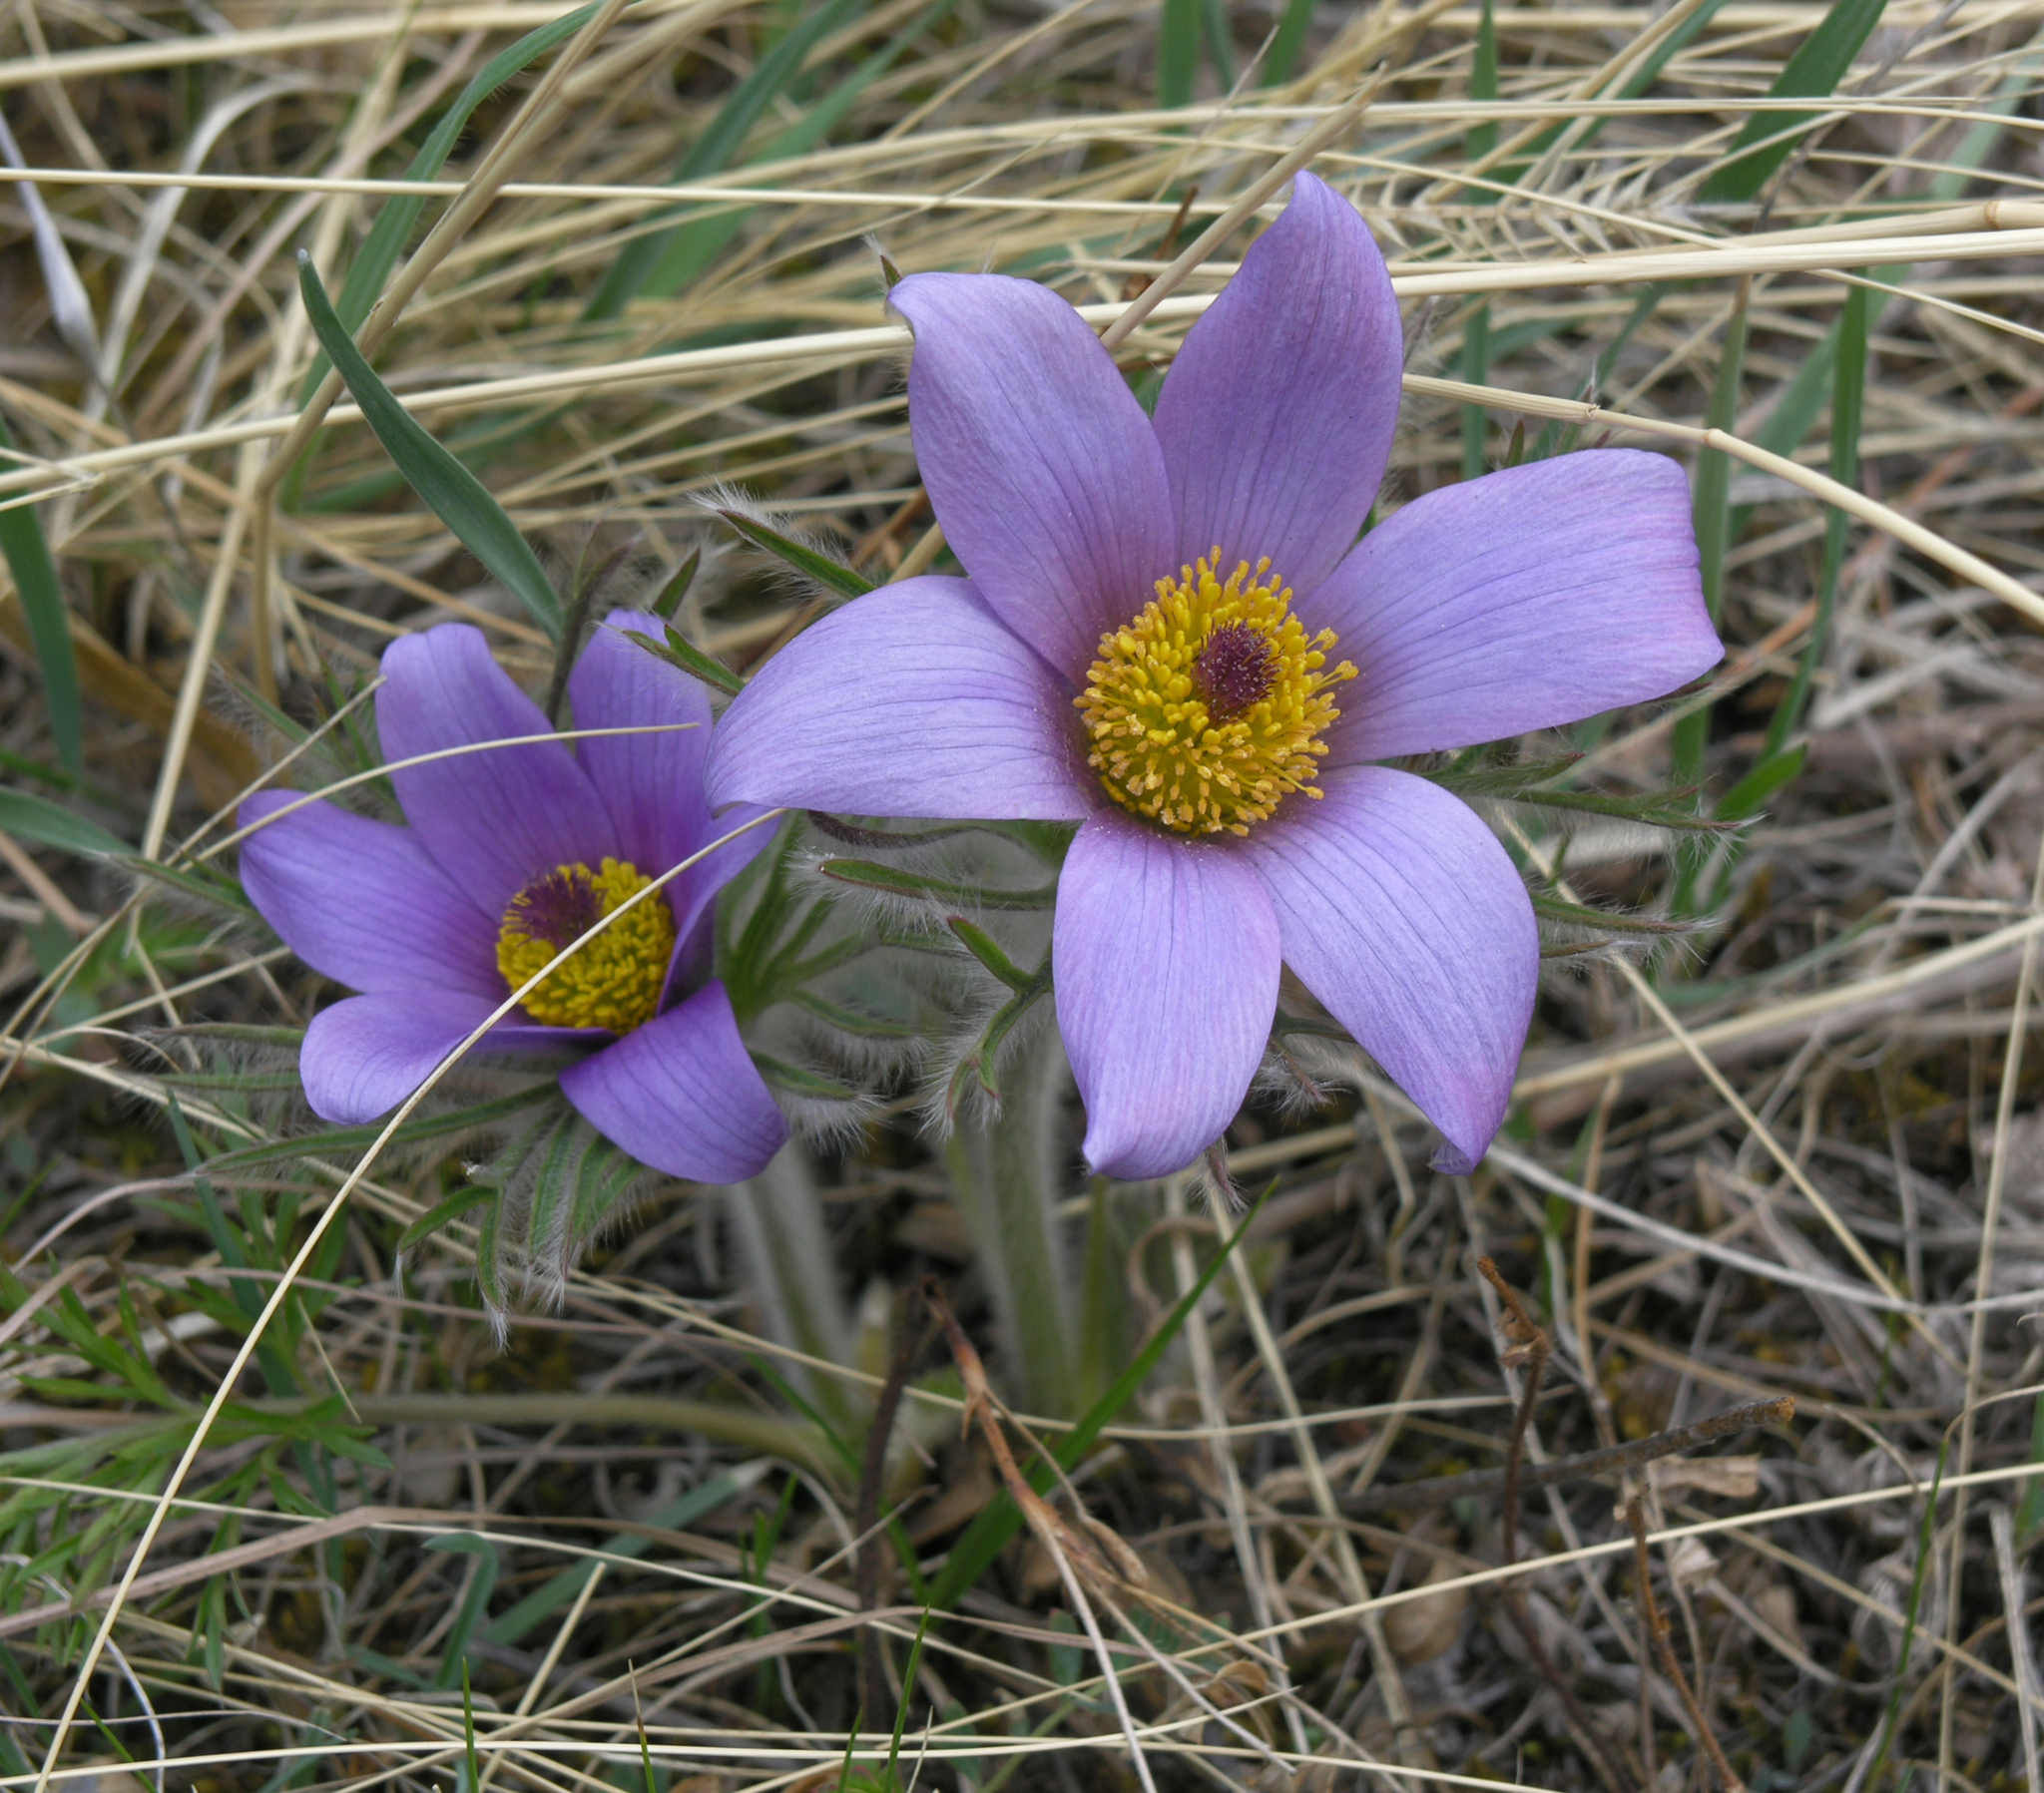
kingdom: Plantae
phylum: Tracheophyta
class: Magnoliopsida
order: Ranunculales
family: Ranunculaceae
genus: Pulsatilla
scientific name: Pulsatilla turczaninovii
